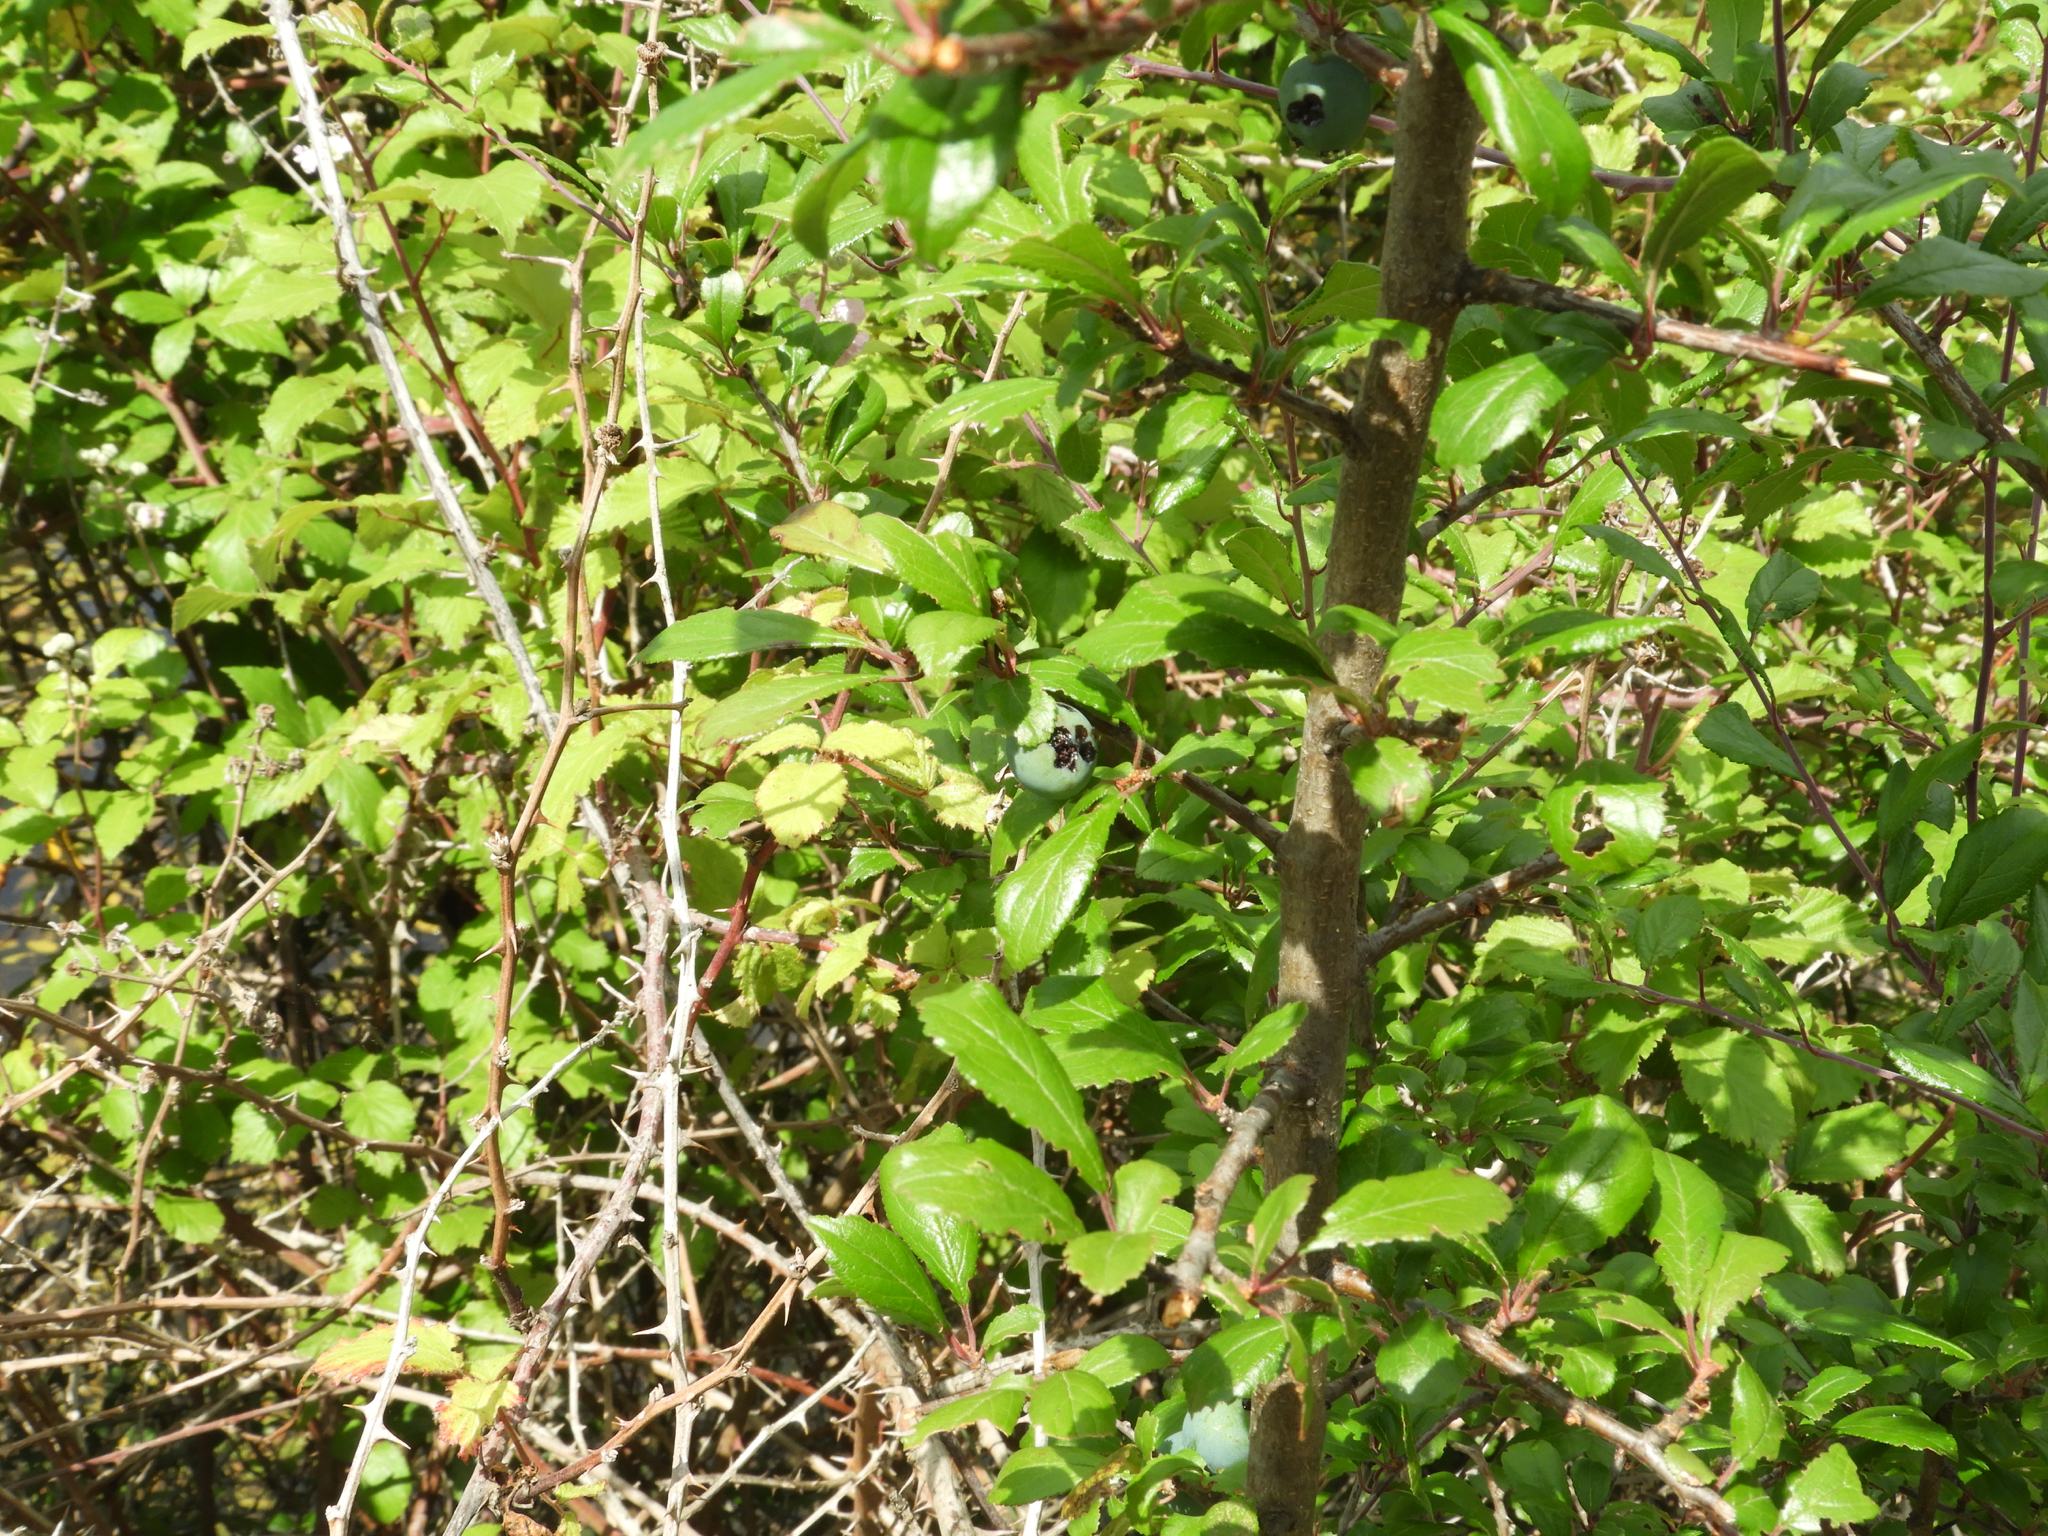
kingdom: Plantae
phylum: Tracheophyta
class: Magnoliopsida
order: Rosales
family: Rosaceae
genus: Prunus
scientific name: Prunus spinosa
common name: Blackthorn
